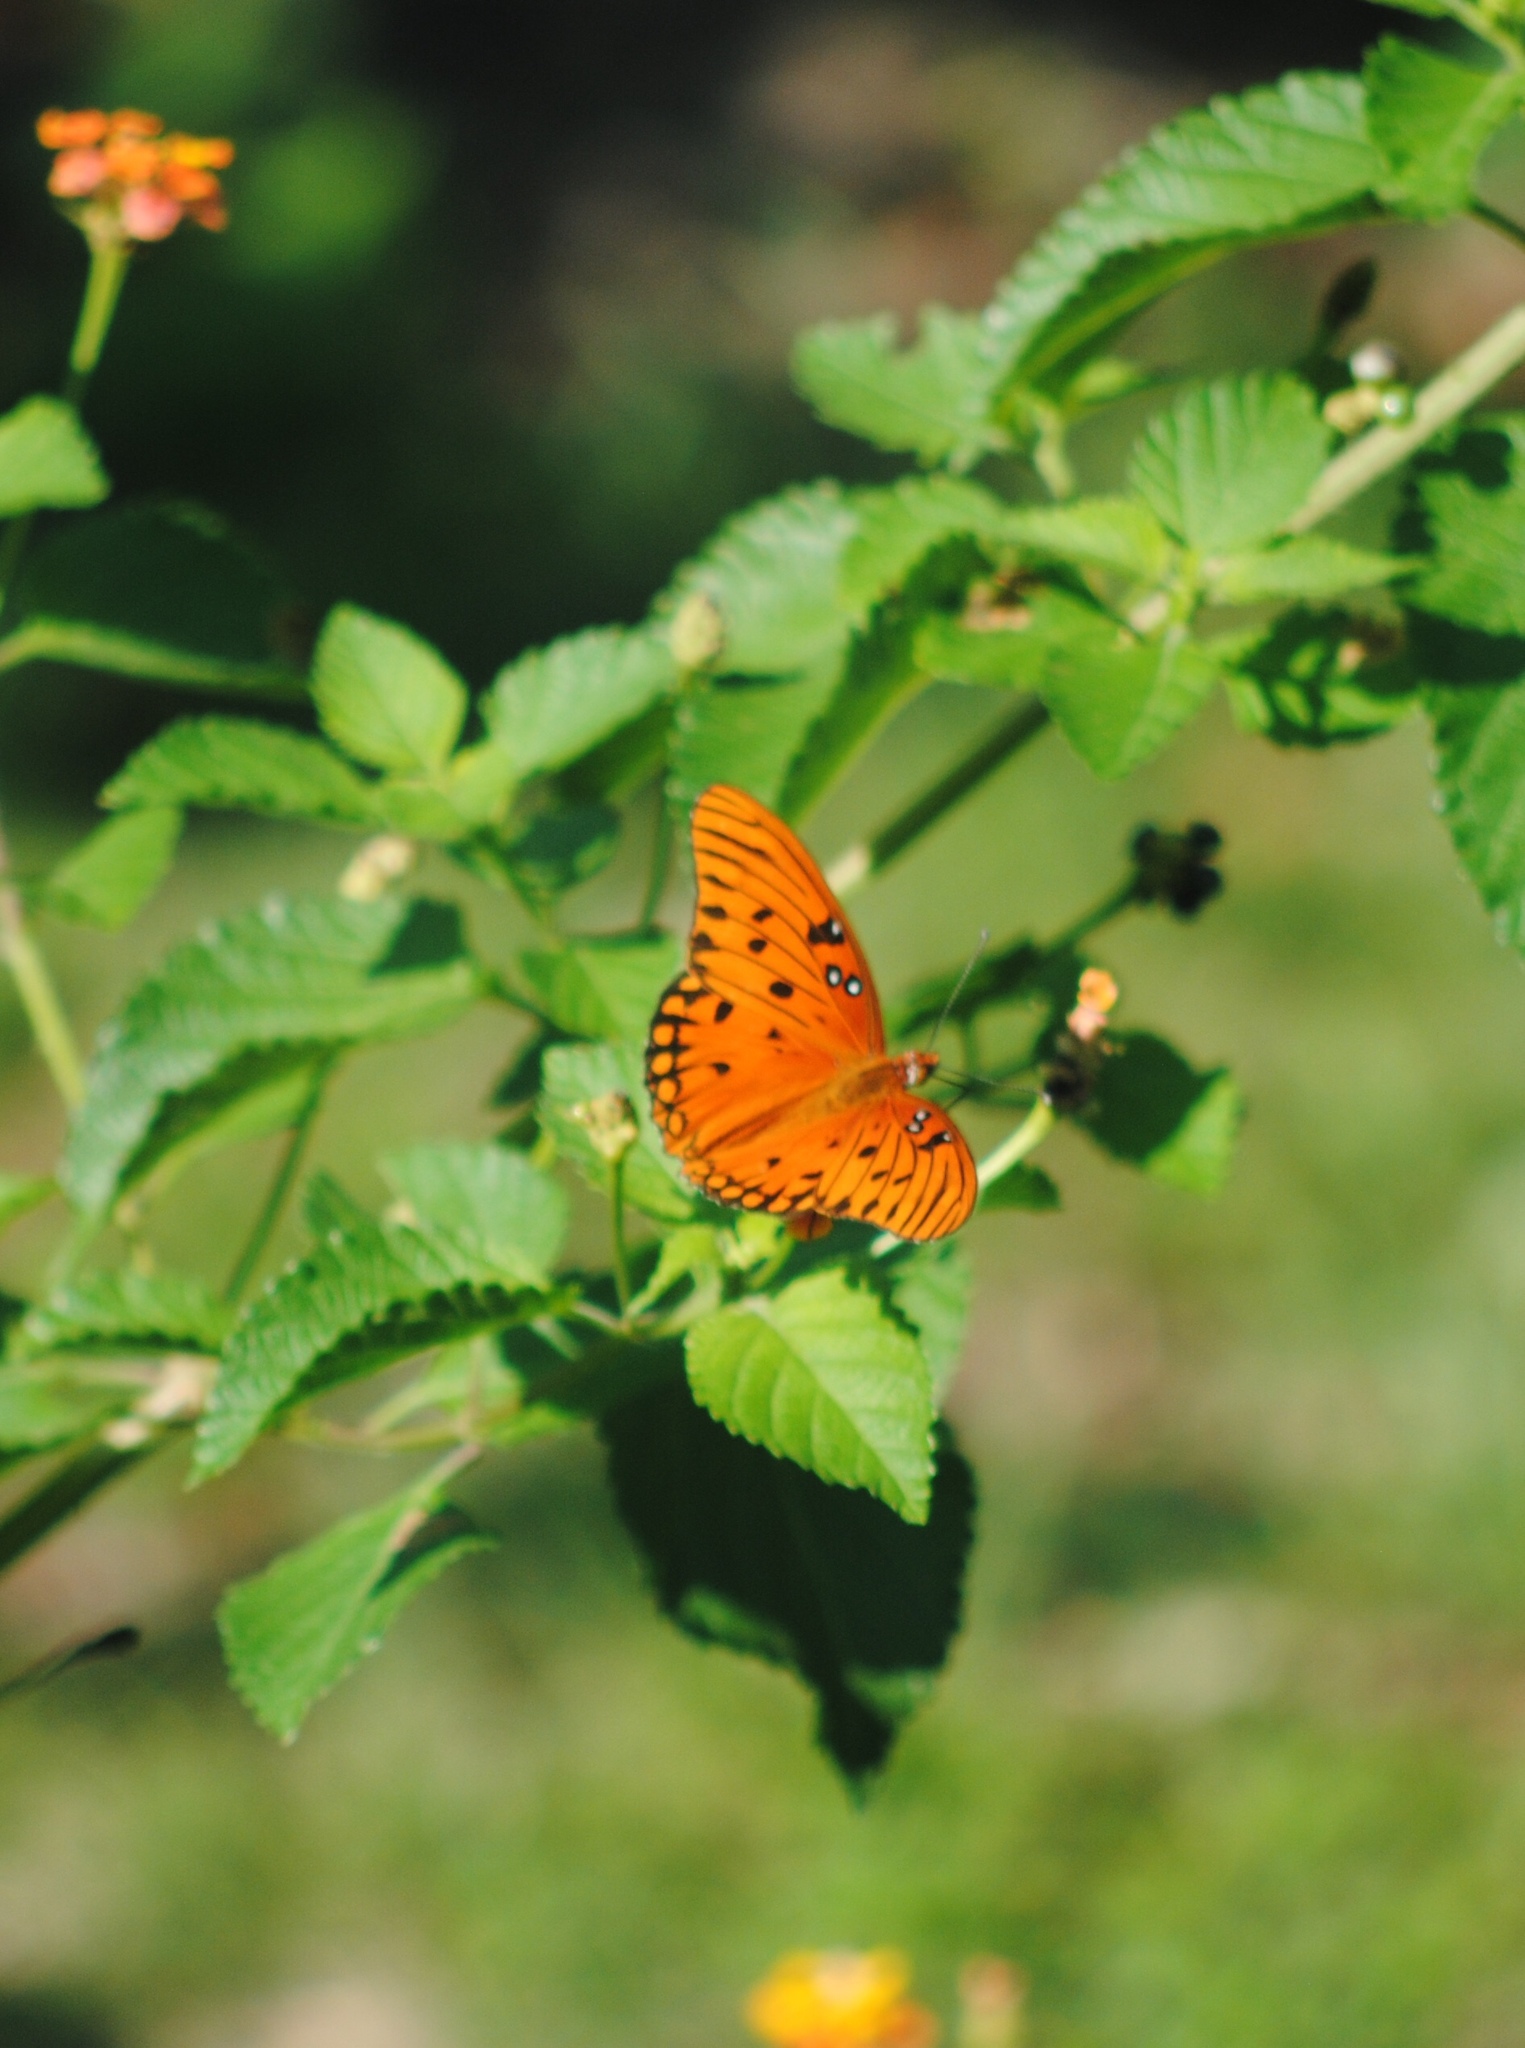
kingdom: Animalia
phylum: Arthropoda
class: Insecta
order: Lepidoptera
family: Nymphalidae
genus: Dione
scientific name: Dione vanillae
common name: Gulf fritillary
